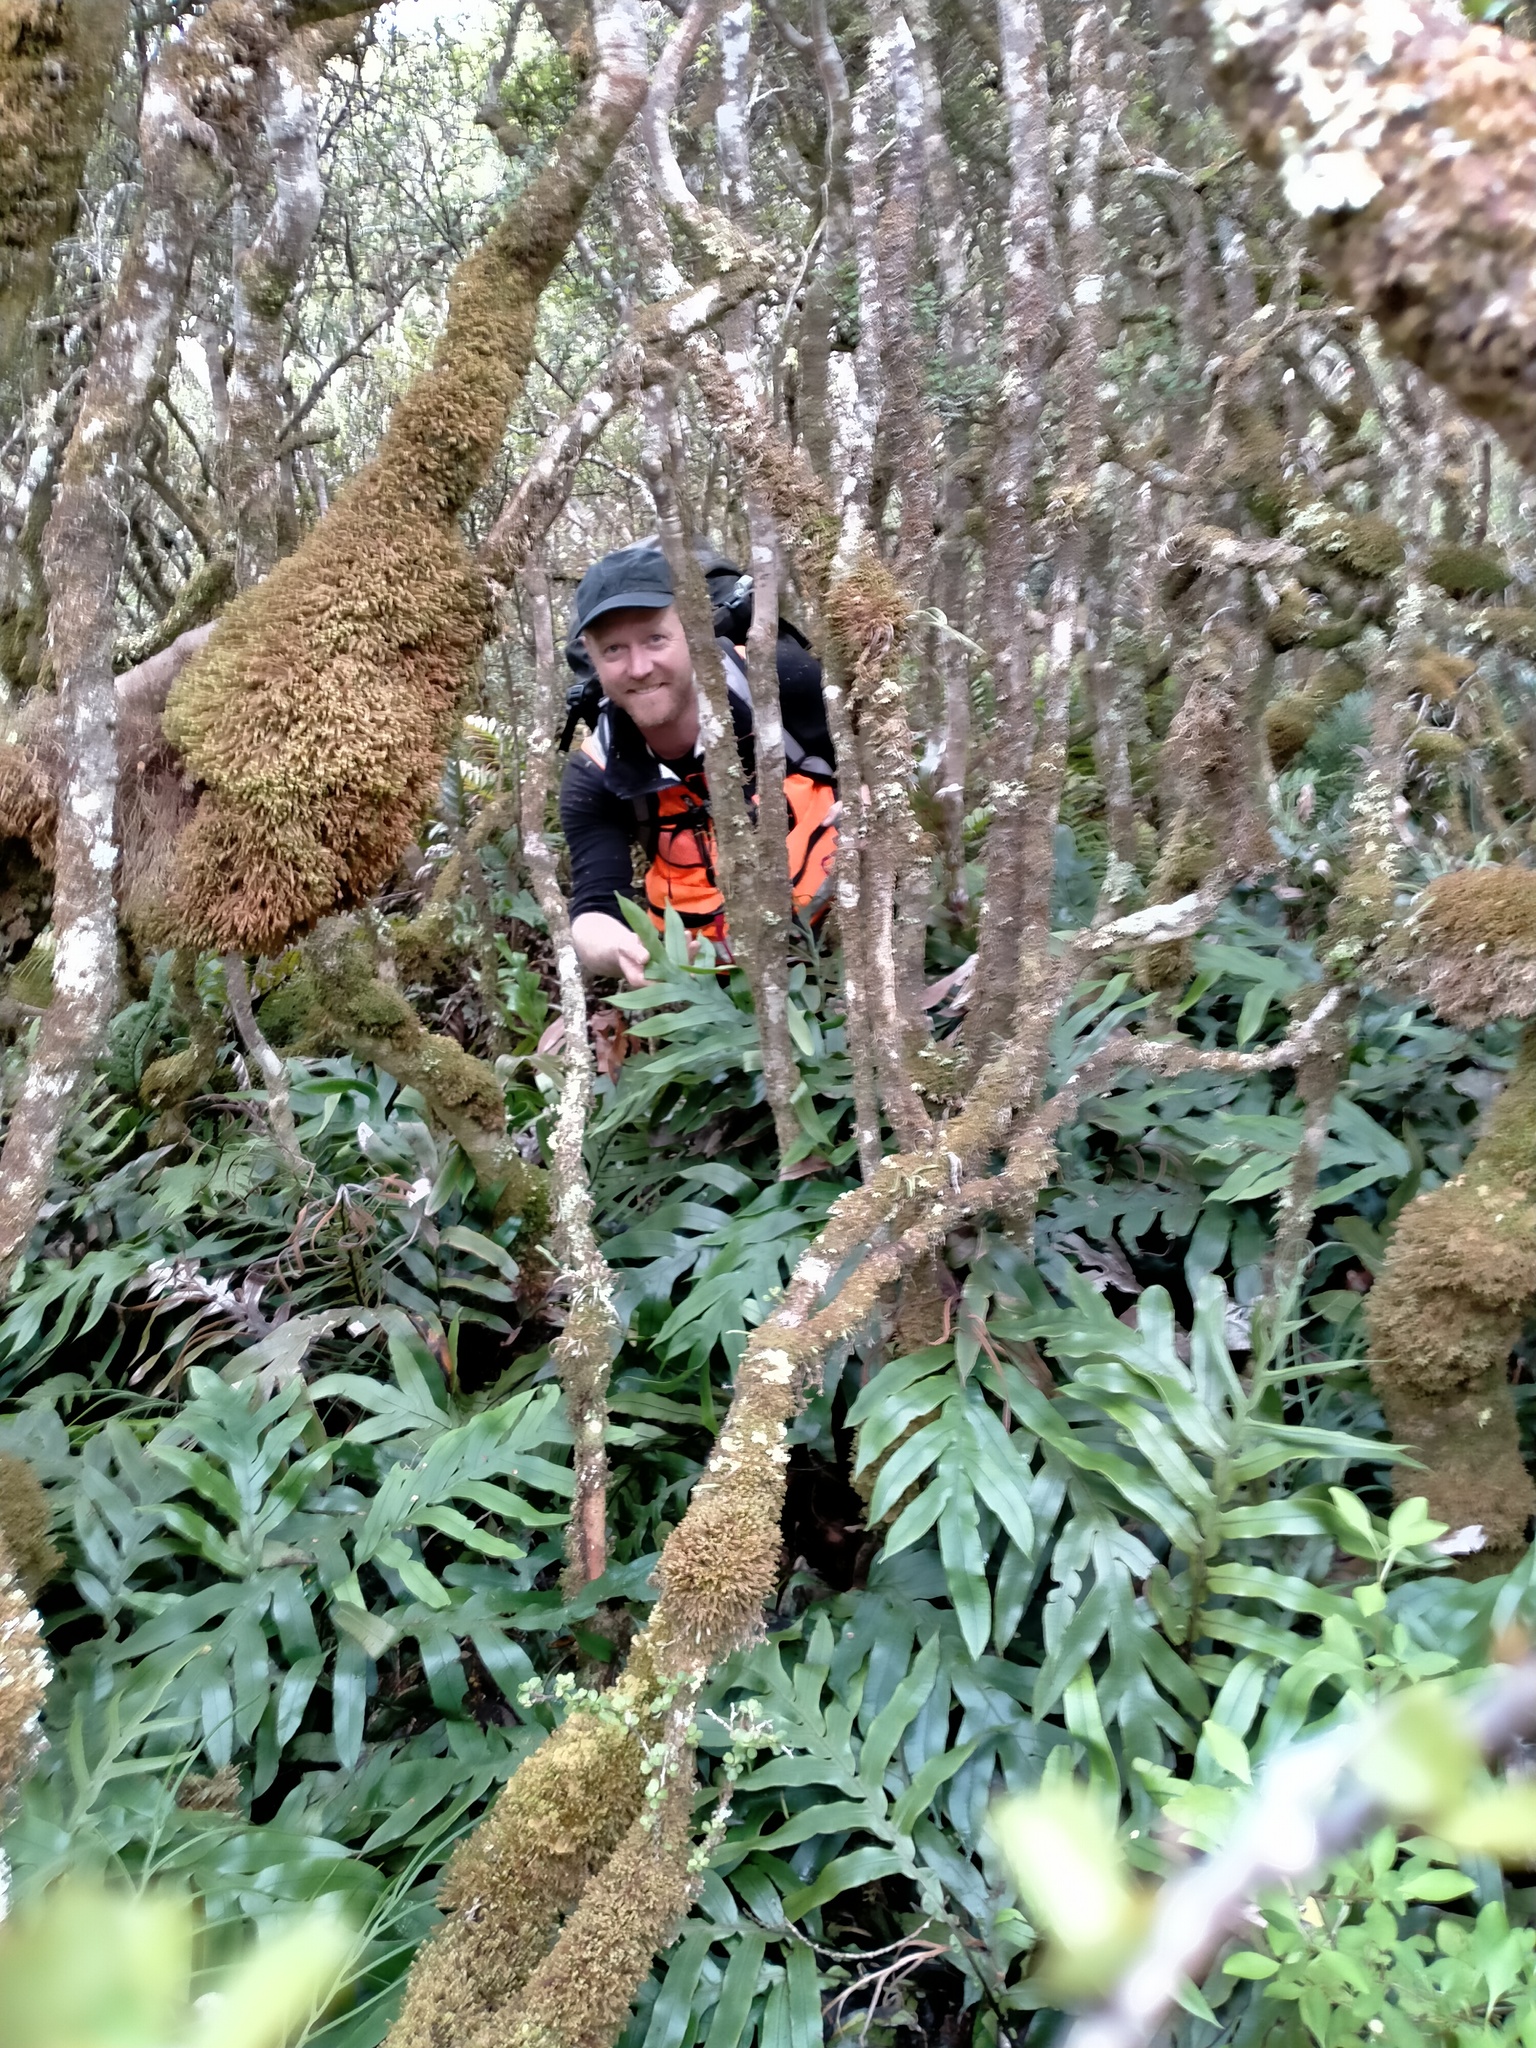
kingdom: Plantae
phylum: Tracheophyta
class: Polypodiopsida
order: Polypodiales
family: Blechnaceae
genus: Austroblechnum
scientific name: Austroblechnum colensoi
